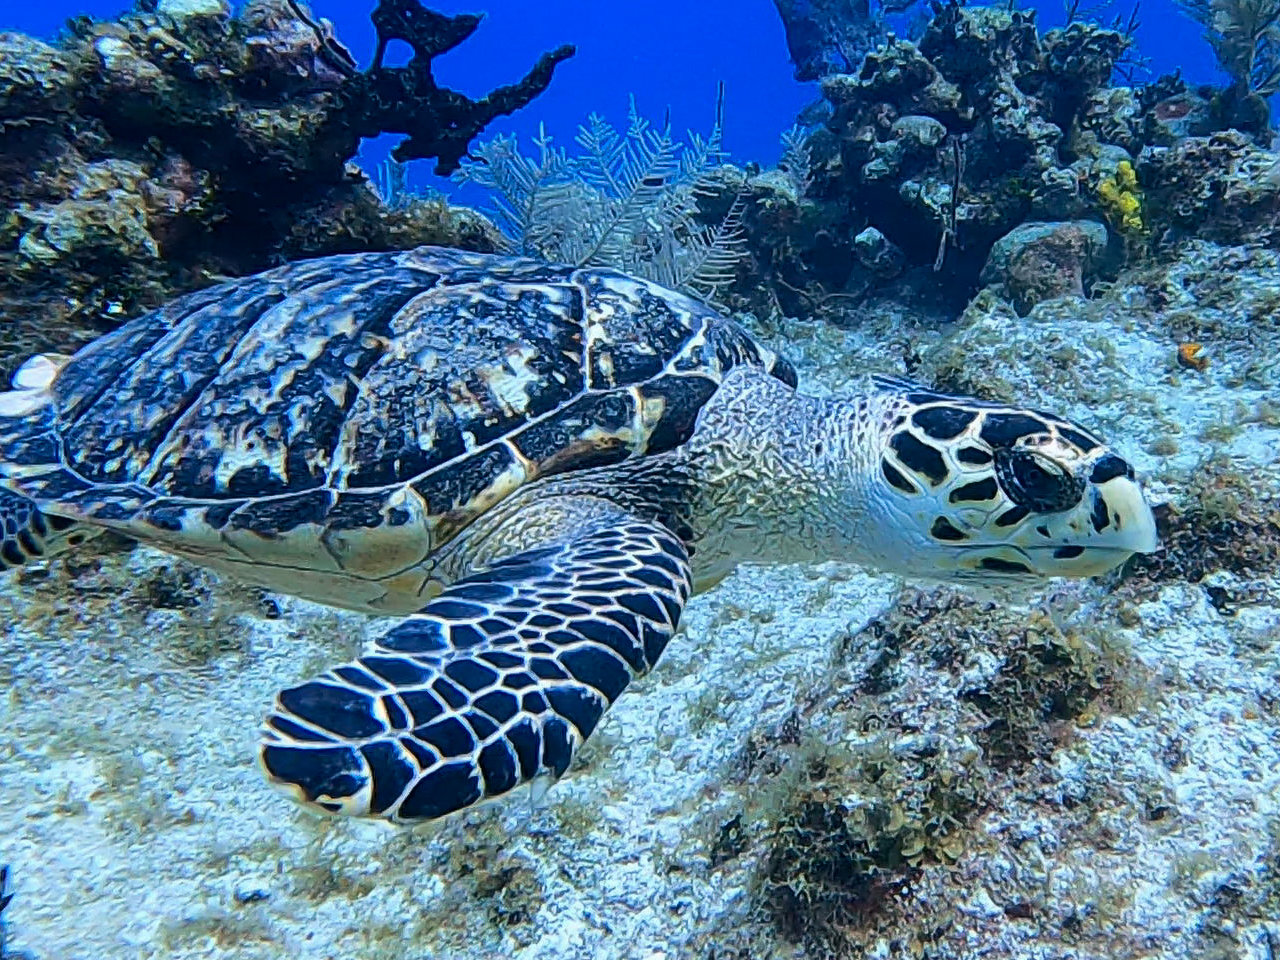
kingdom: Animalia
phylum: Chordata
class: Testudines
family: Cheloniidae
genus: Eretmochelys
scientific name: Eretmochelys imbricata
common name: Hawksbill turtle
